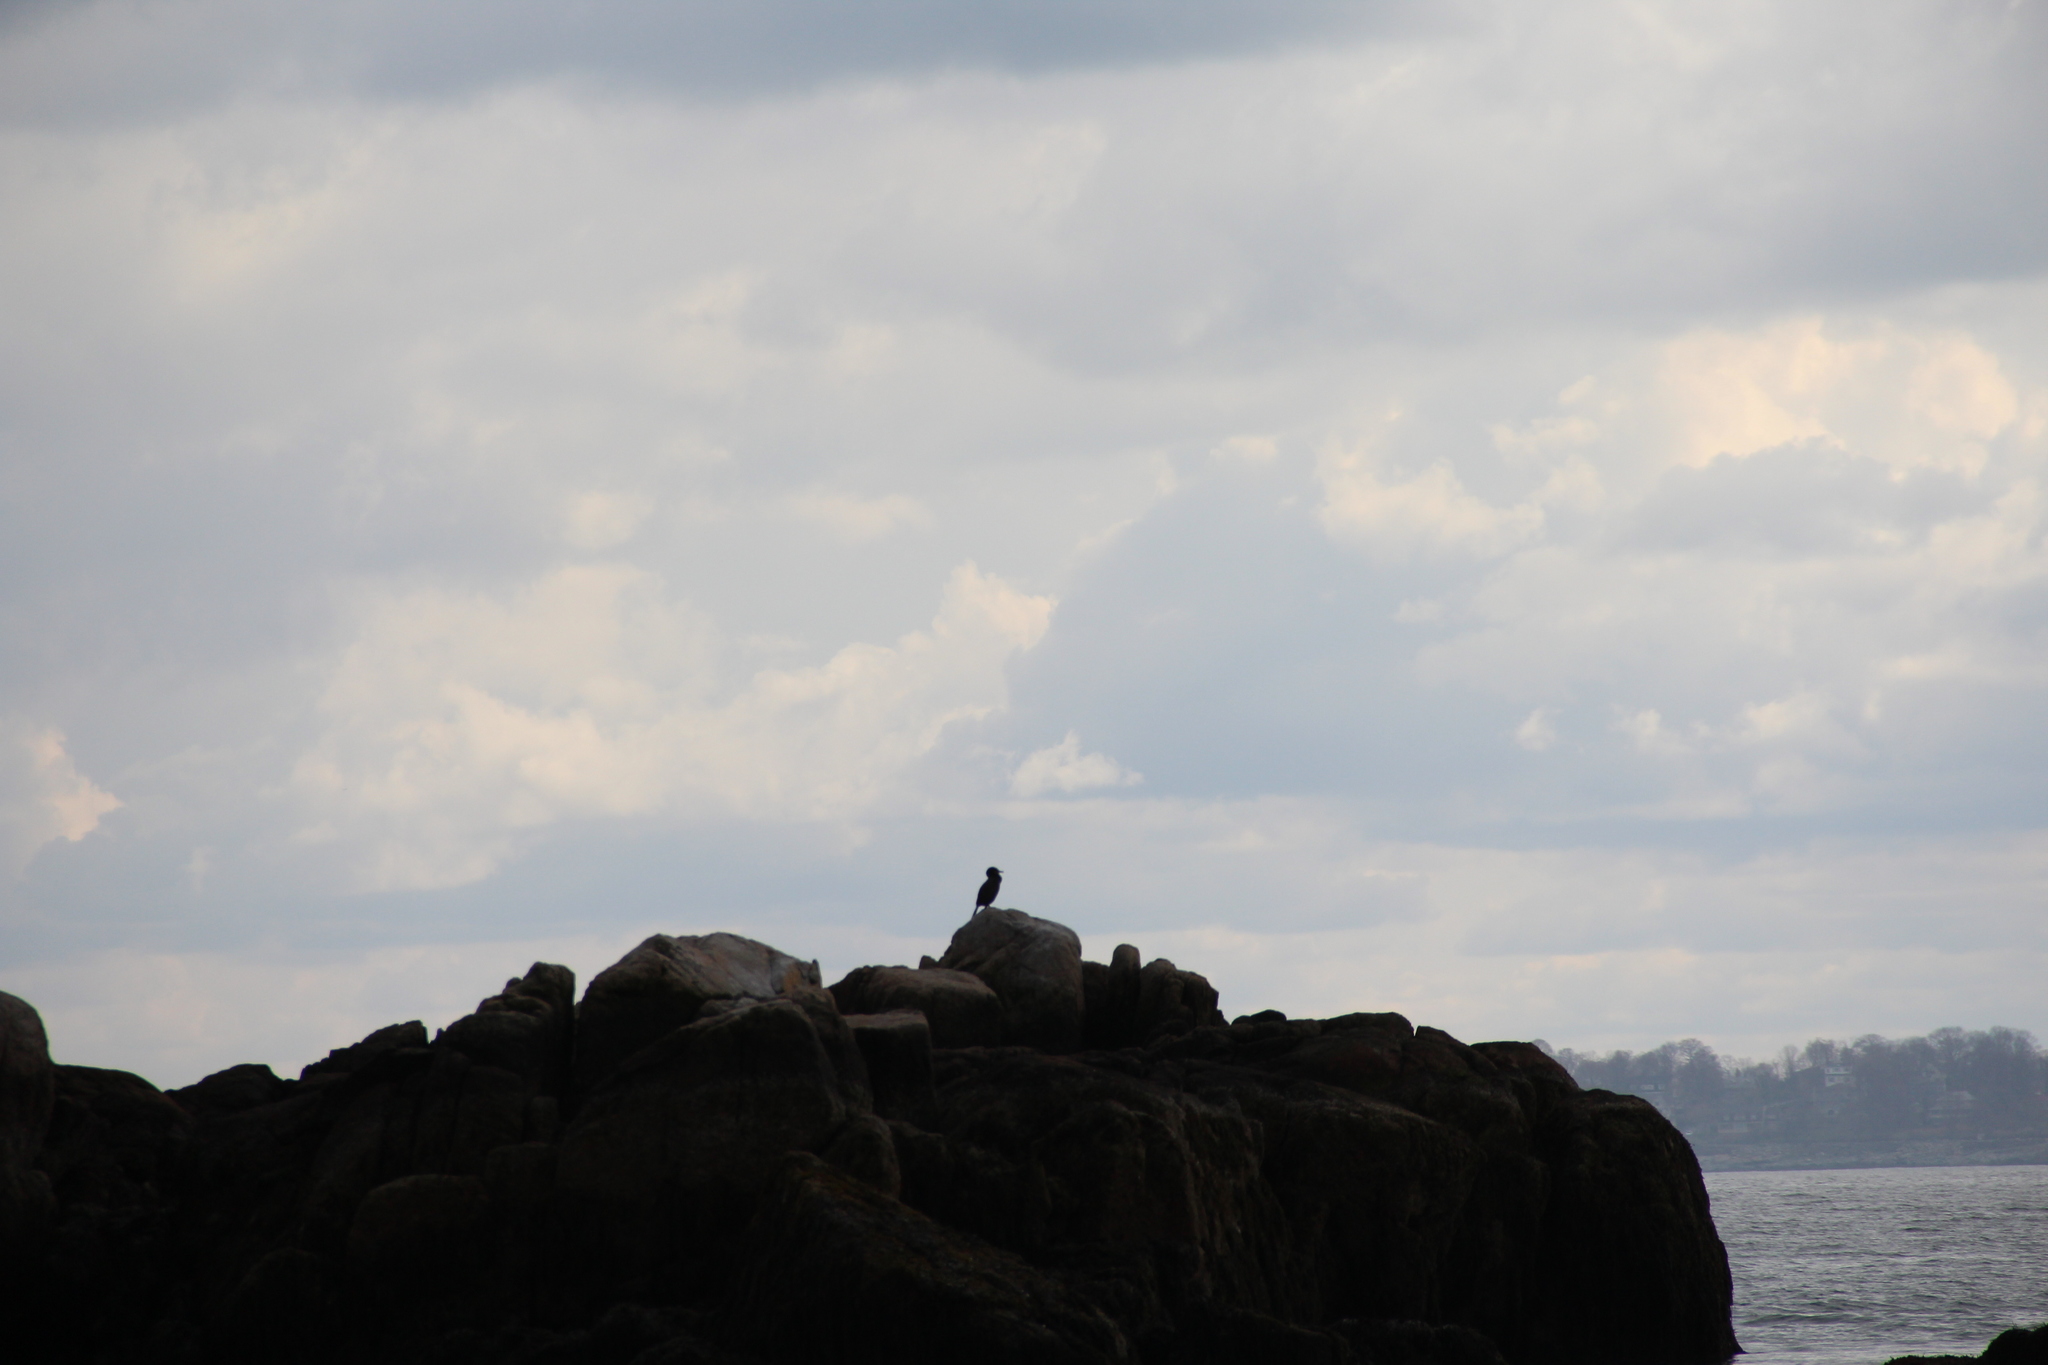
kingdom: Animalia
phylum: Chordata
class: Aves
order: Suliformes
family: Phalacrocoracidae
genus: Phalacrocorax
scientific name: Phalacrocorax auritus
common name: Double-crested cormorant
